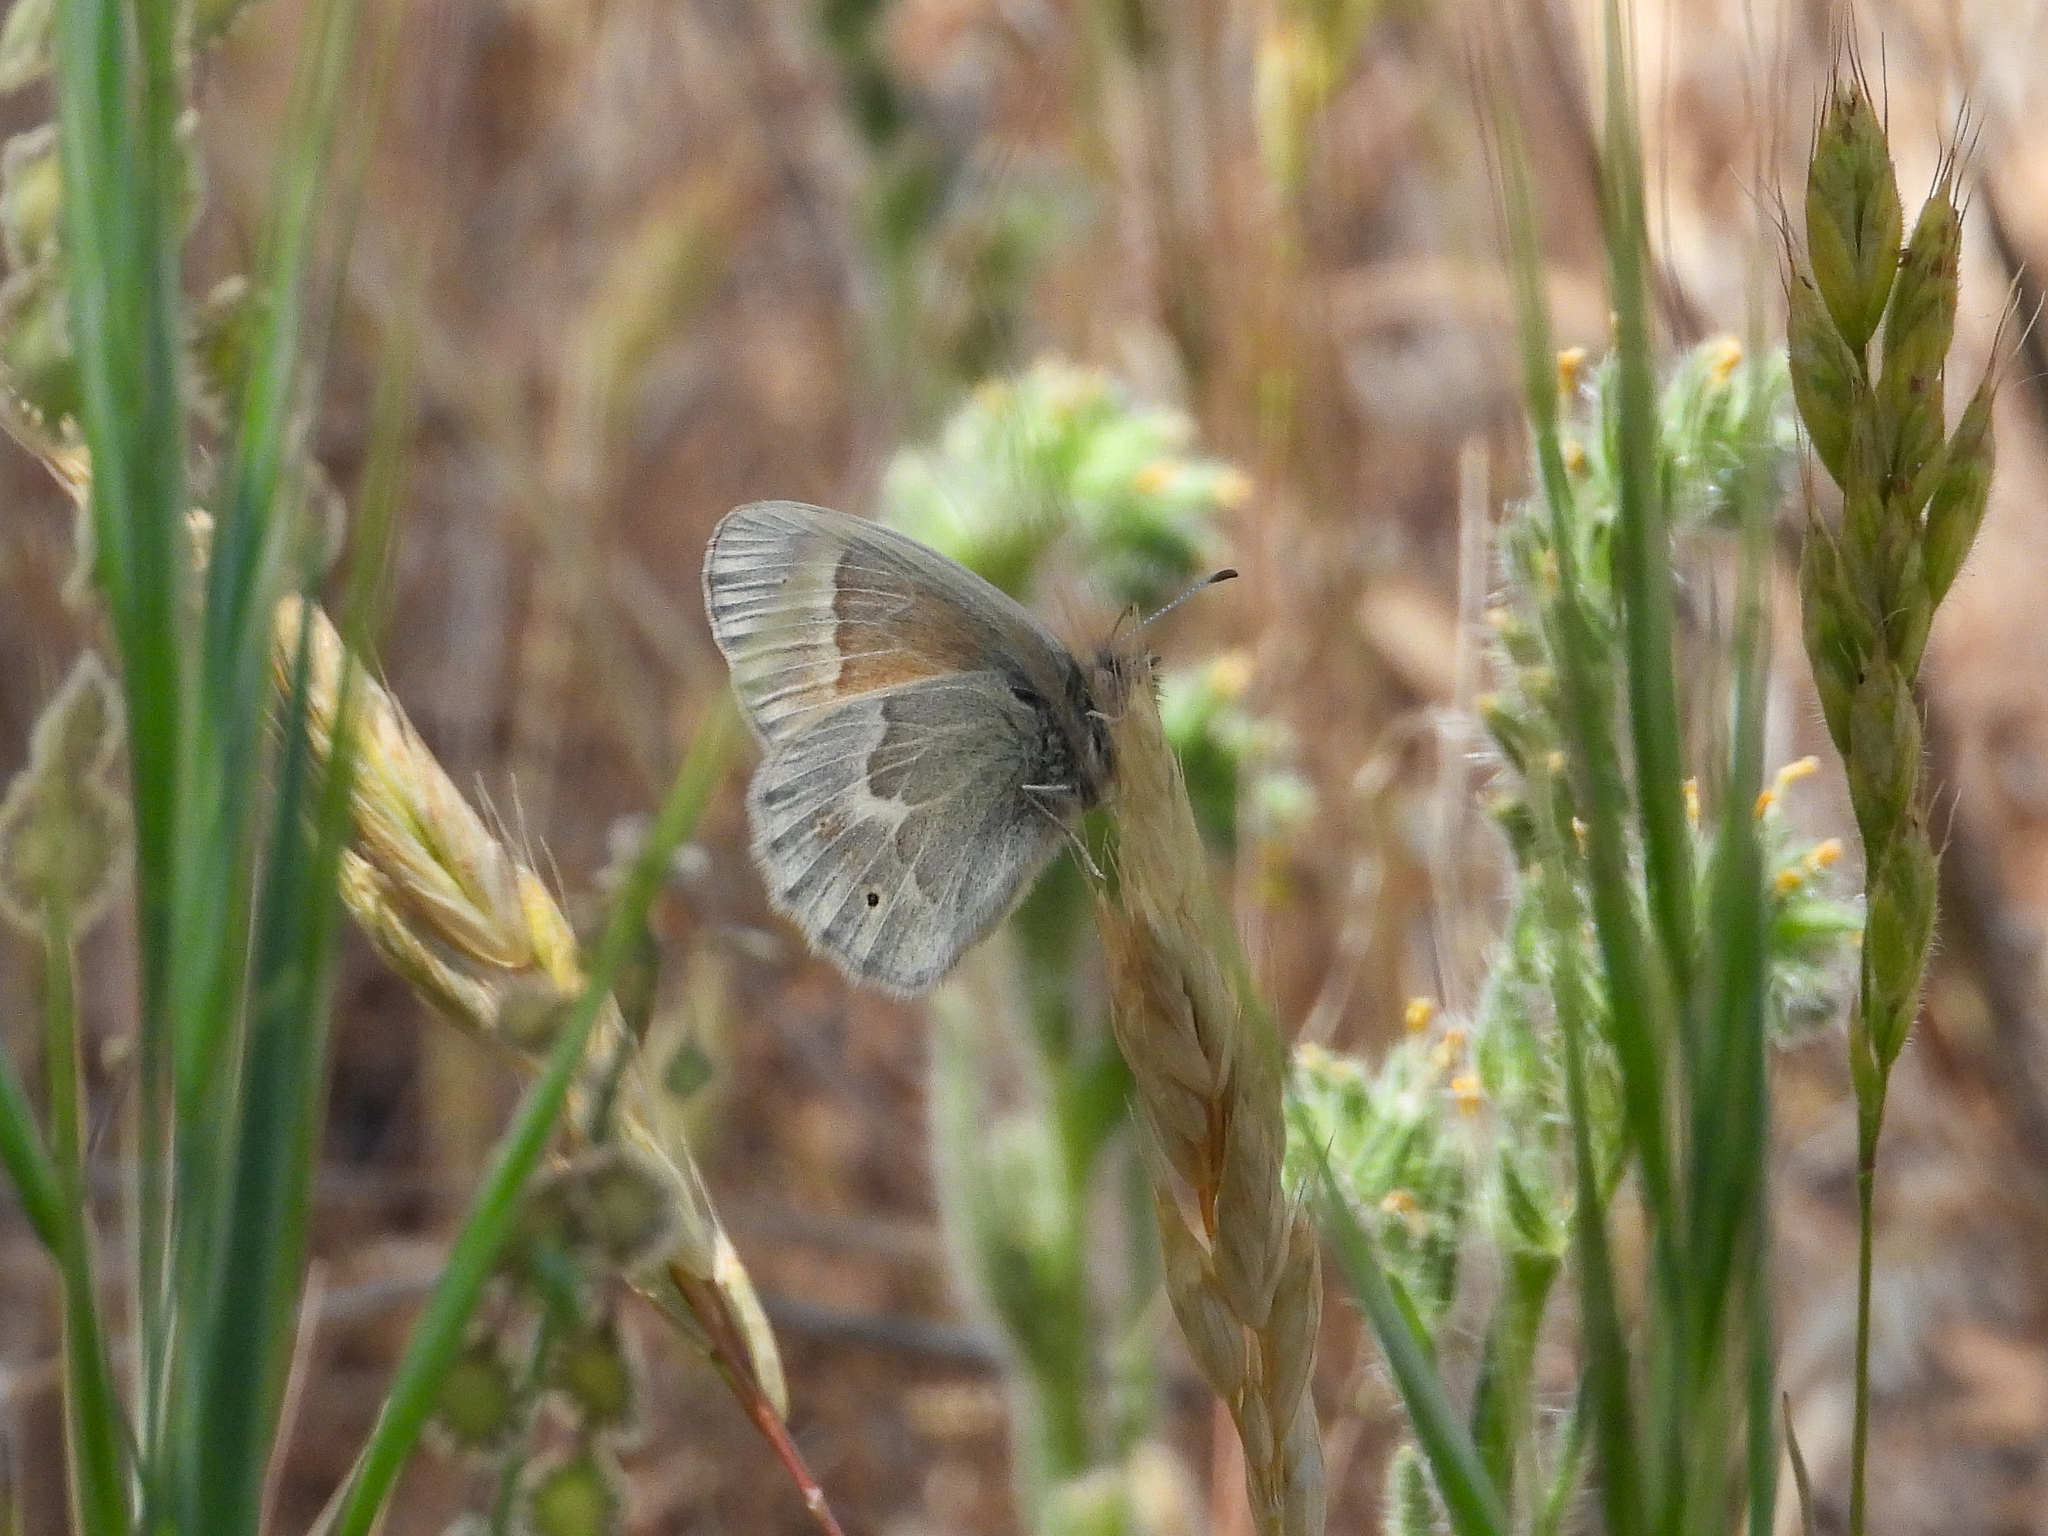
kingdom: Animalia
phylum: Arthropoda
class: Insecta
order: Lepidoptera
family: Nymphalidae
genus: Coenonympha
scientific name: Coenonympha california
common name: Common ringlet
